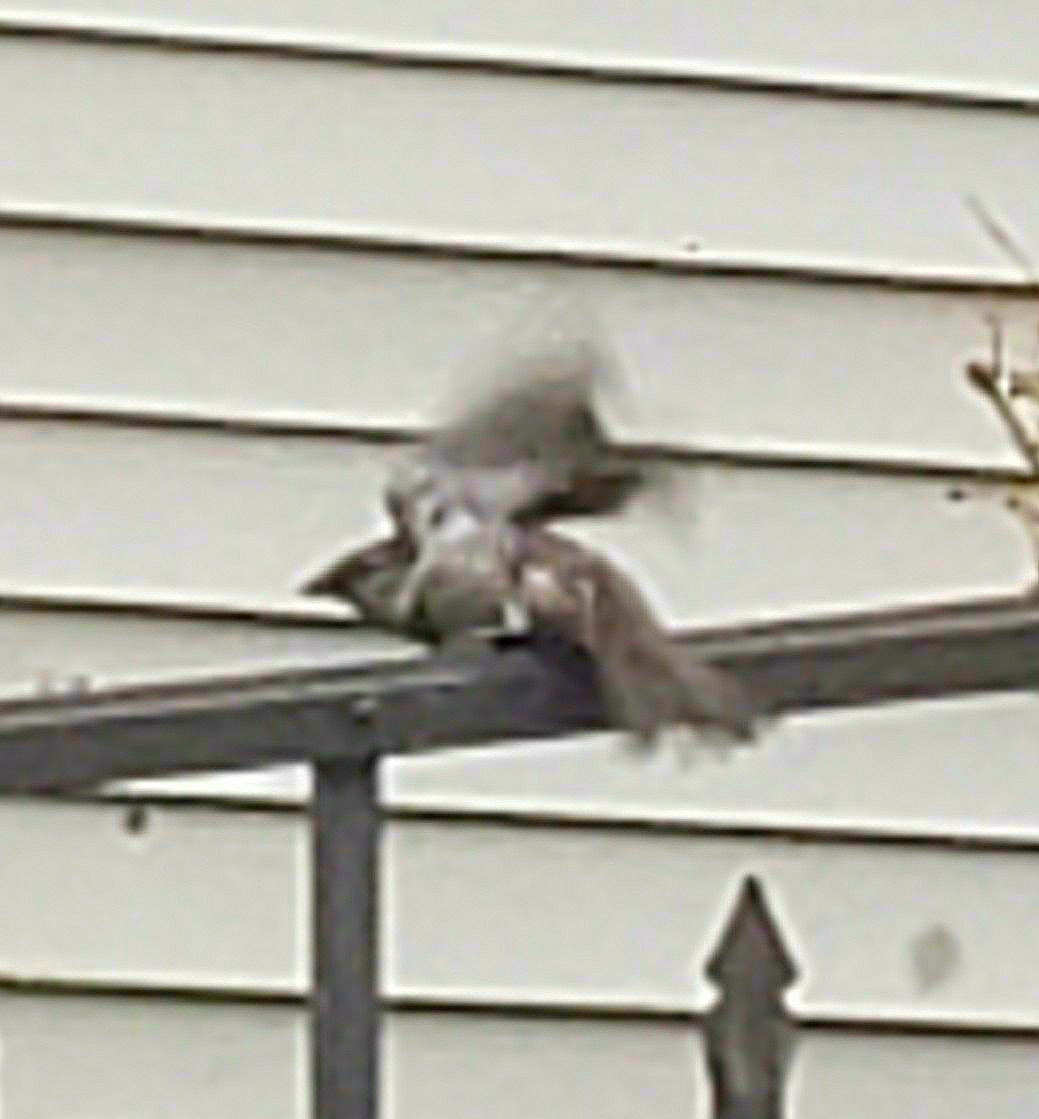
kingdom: Animalia
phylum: Chordata
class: Aves
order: Passeriformes
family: Passeridae
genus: Passer
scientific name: Passer domesticus
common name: House sparrow
